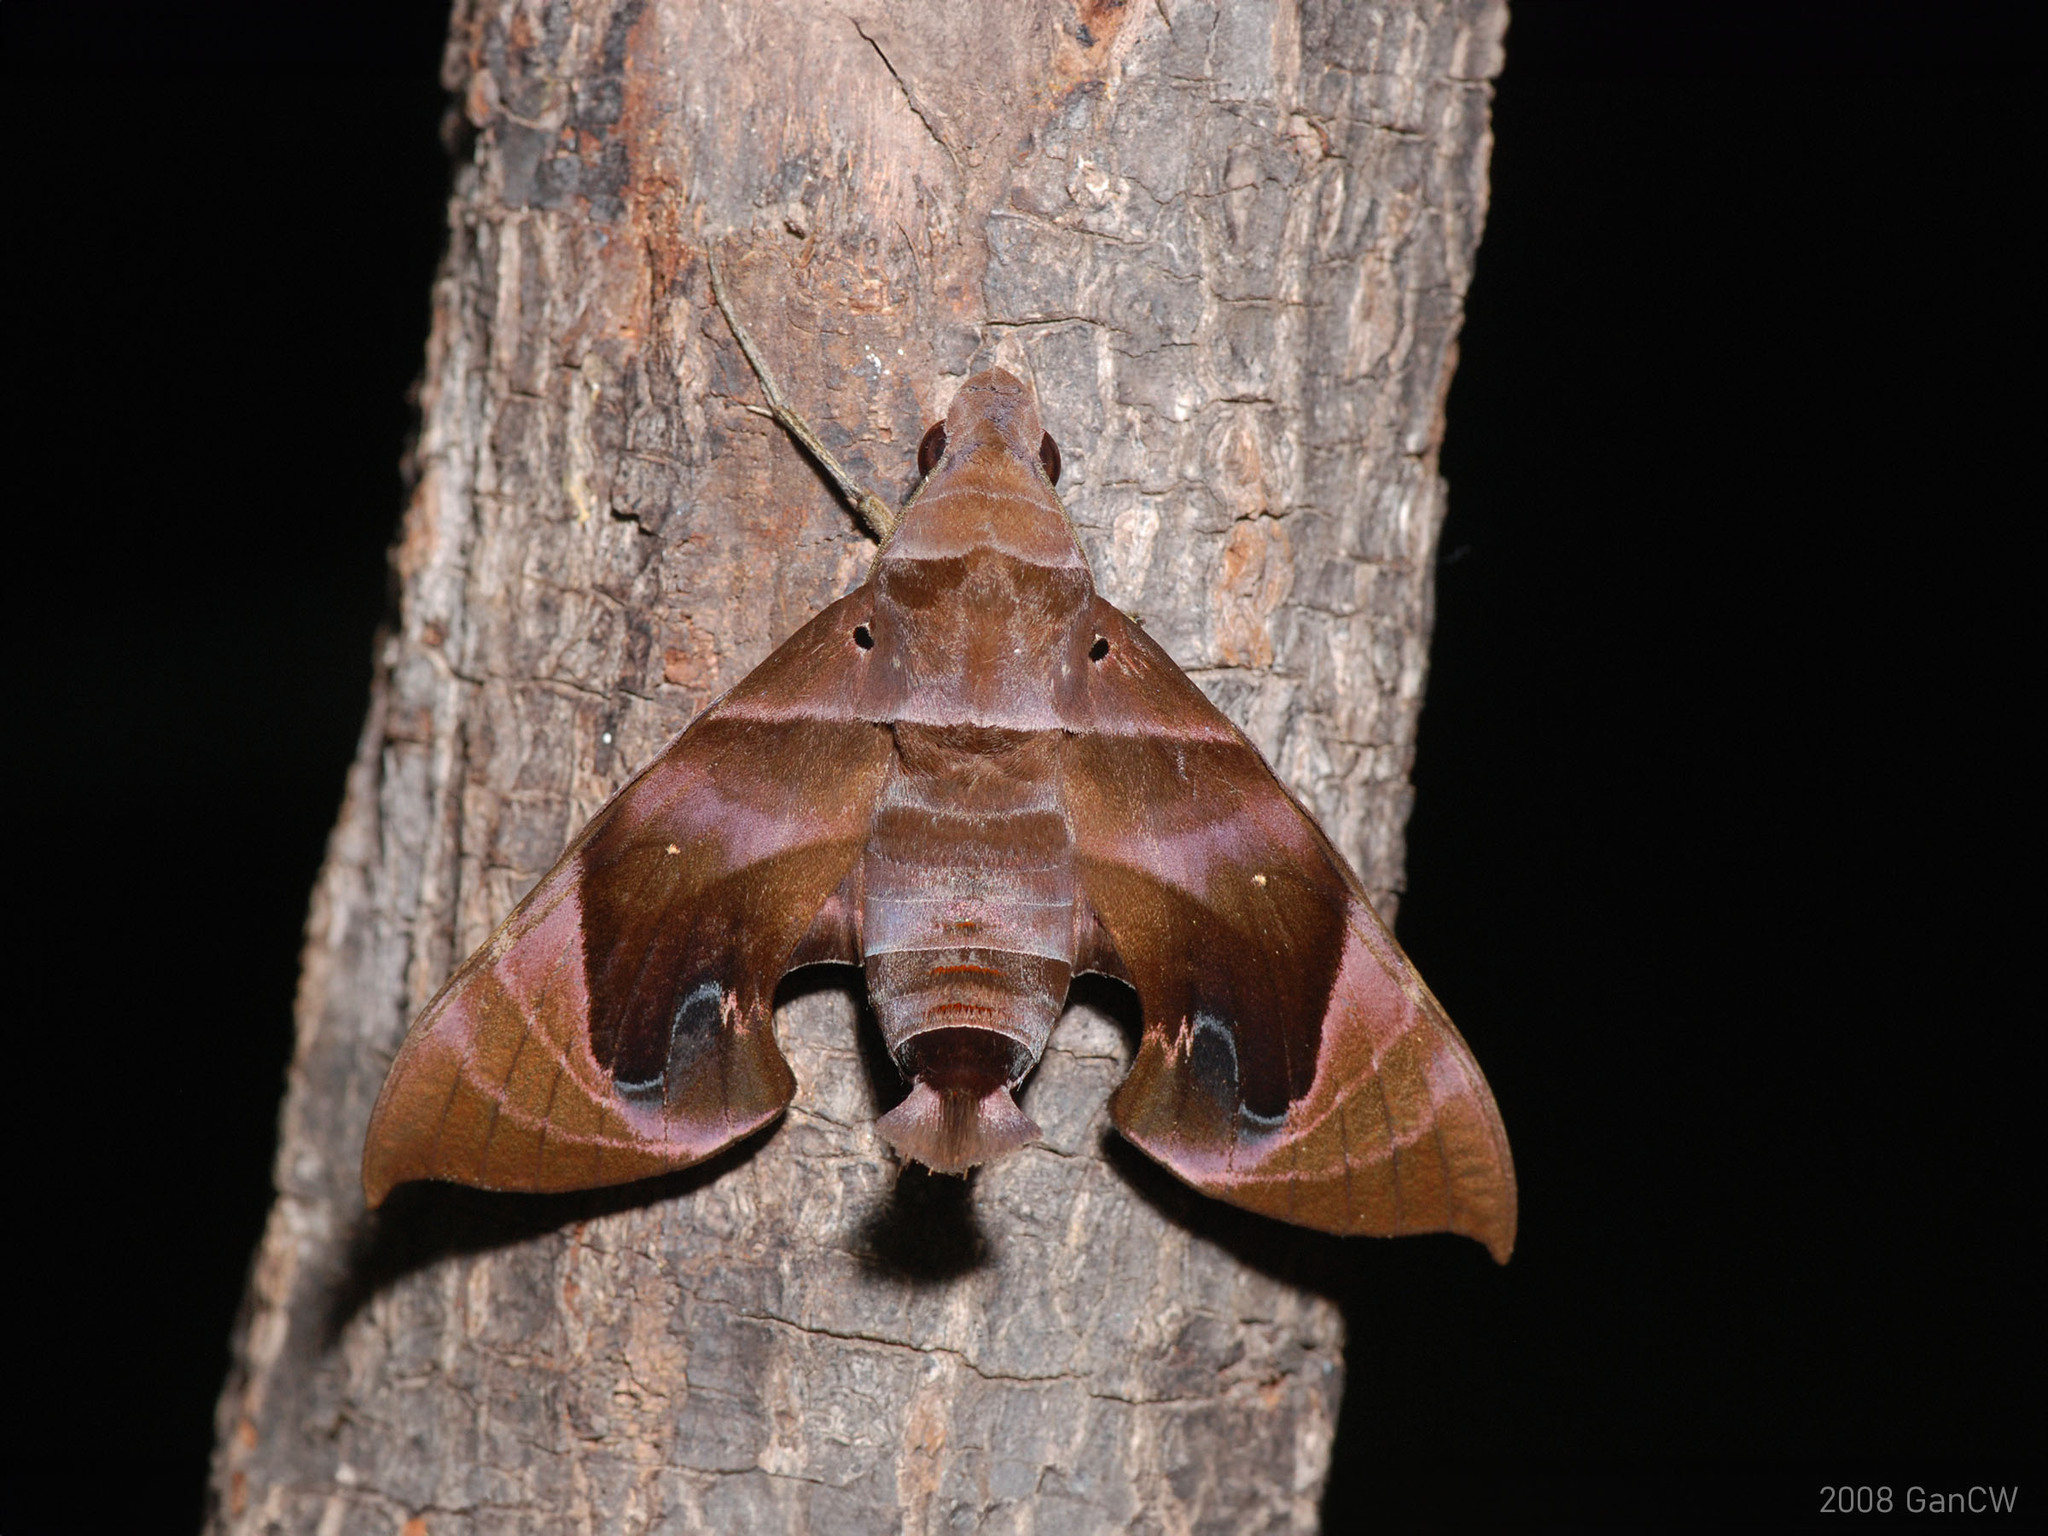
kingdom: Animalia
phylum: Arthropoda
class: Insecta
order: Lepidoptera
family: Sphingidae
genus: Eurypteryx
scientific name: Eurypteryx bhaga
